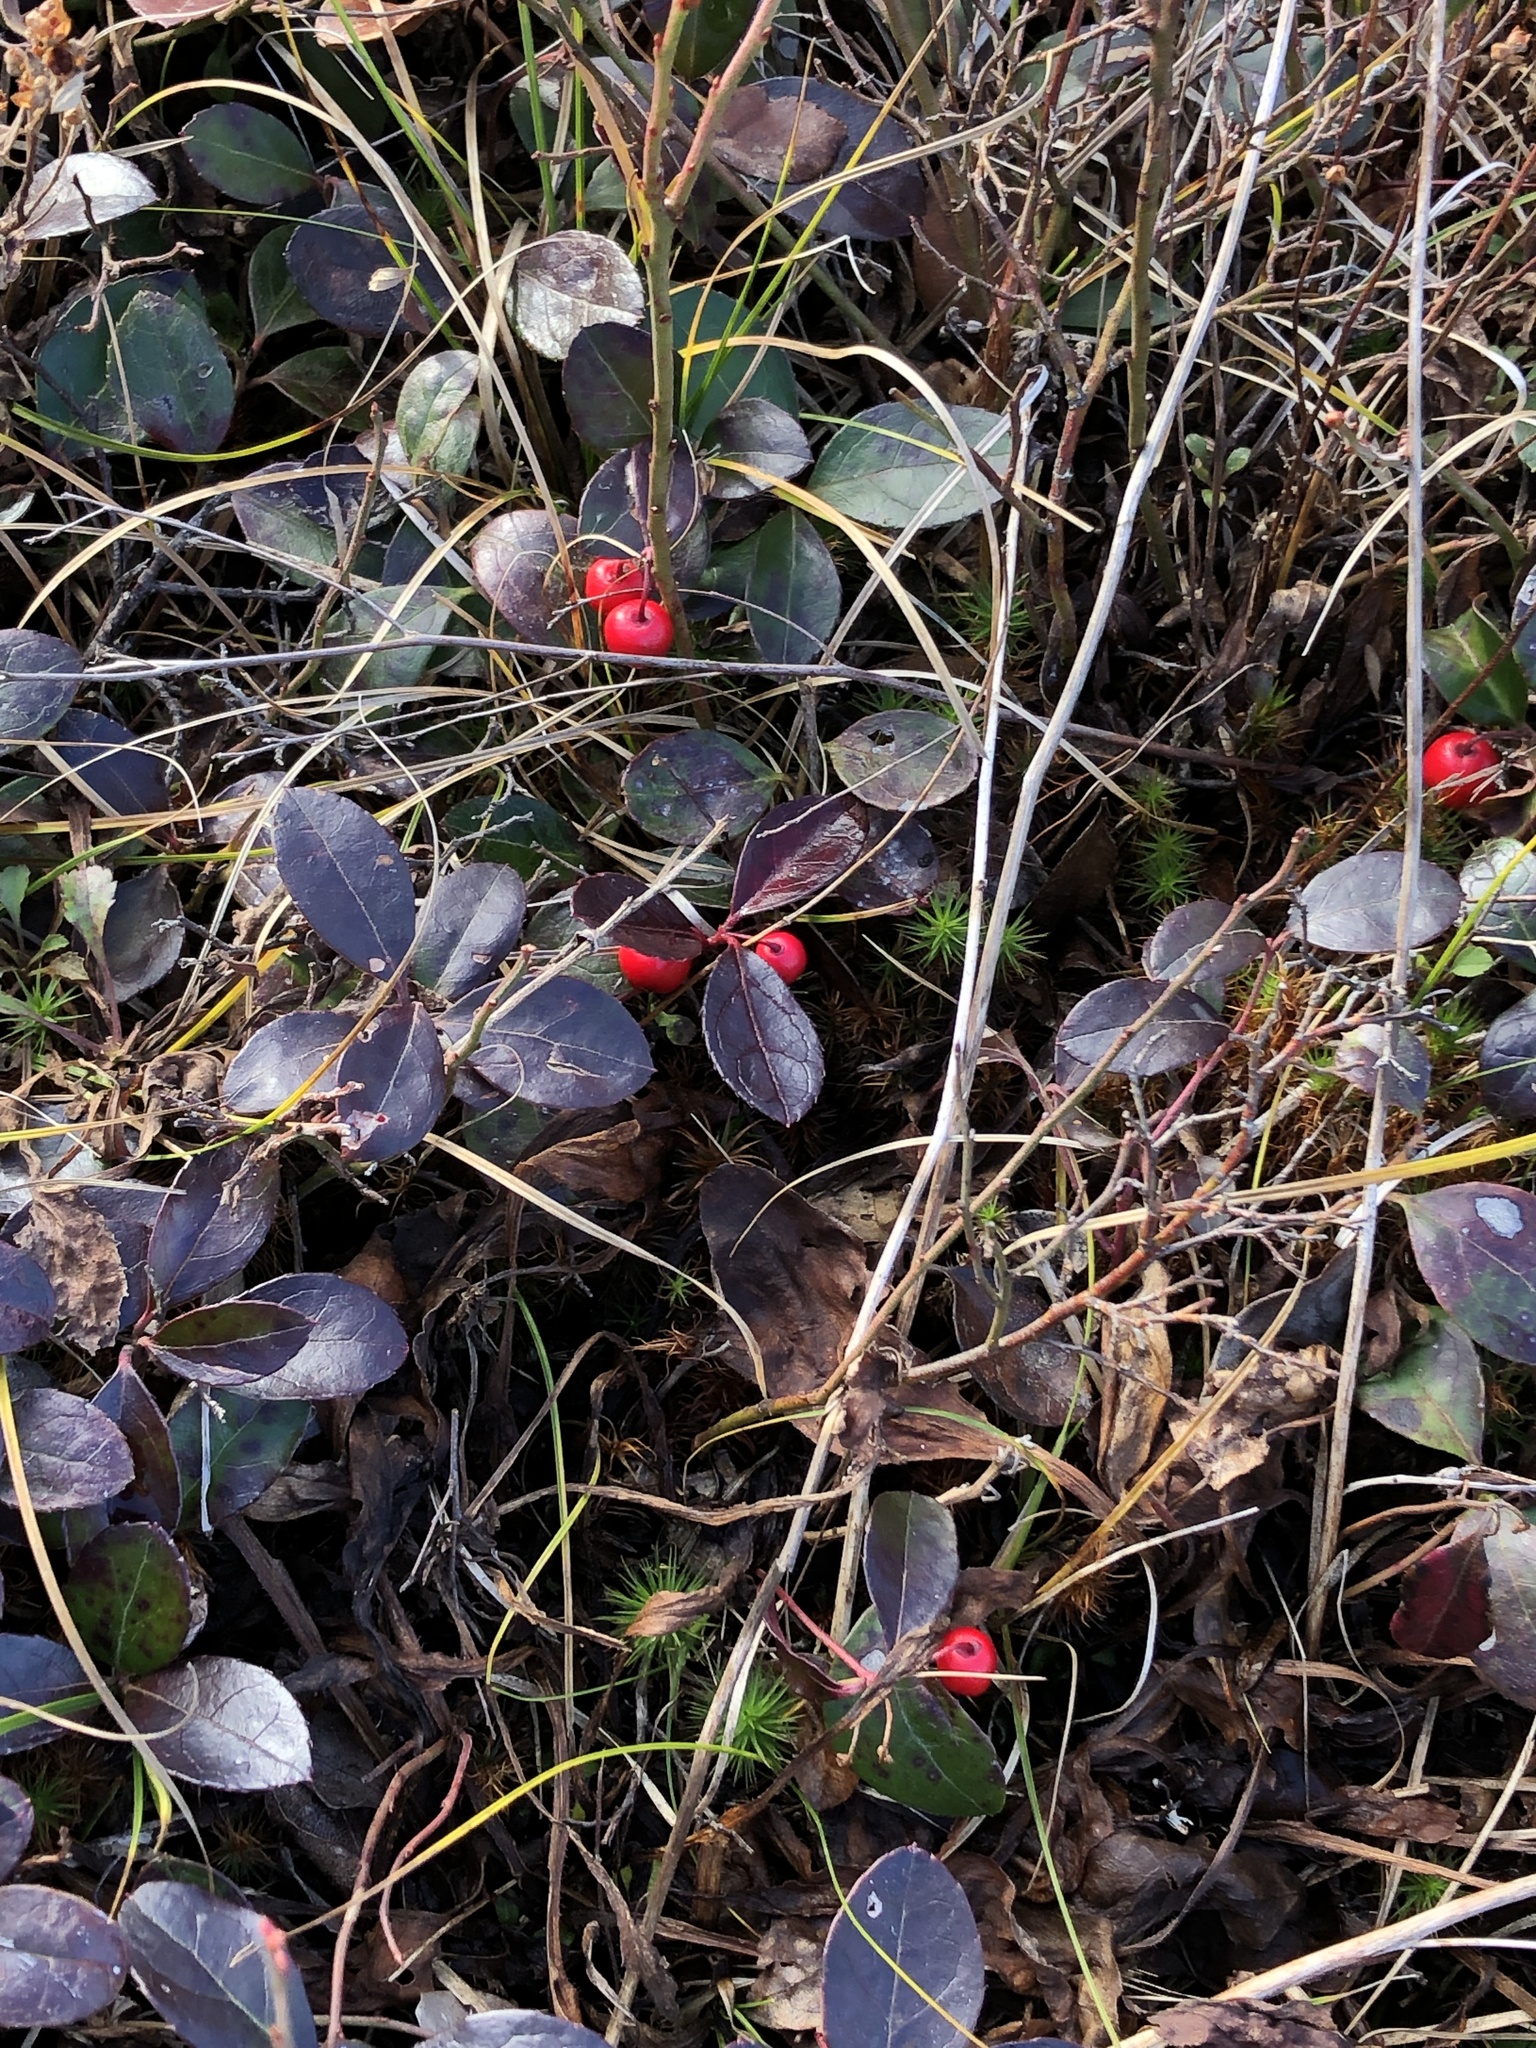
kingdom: Plantae
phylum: Tracheophyta
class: Magnoliopsida
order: Ericales
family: Ericaceae
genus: Gaultheria
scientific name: Gaultheria procumbens
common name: Checkerberry
